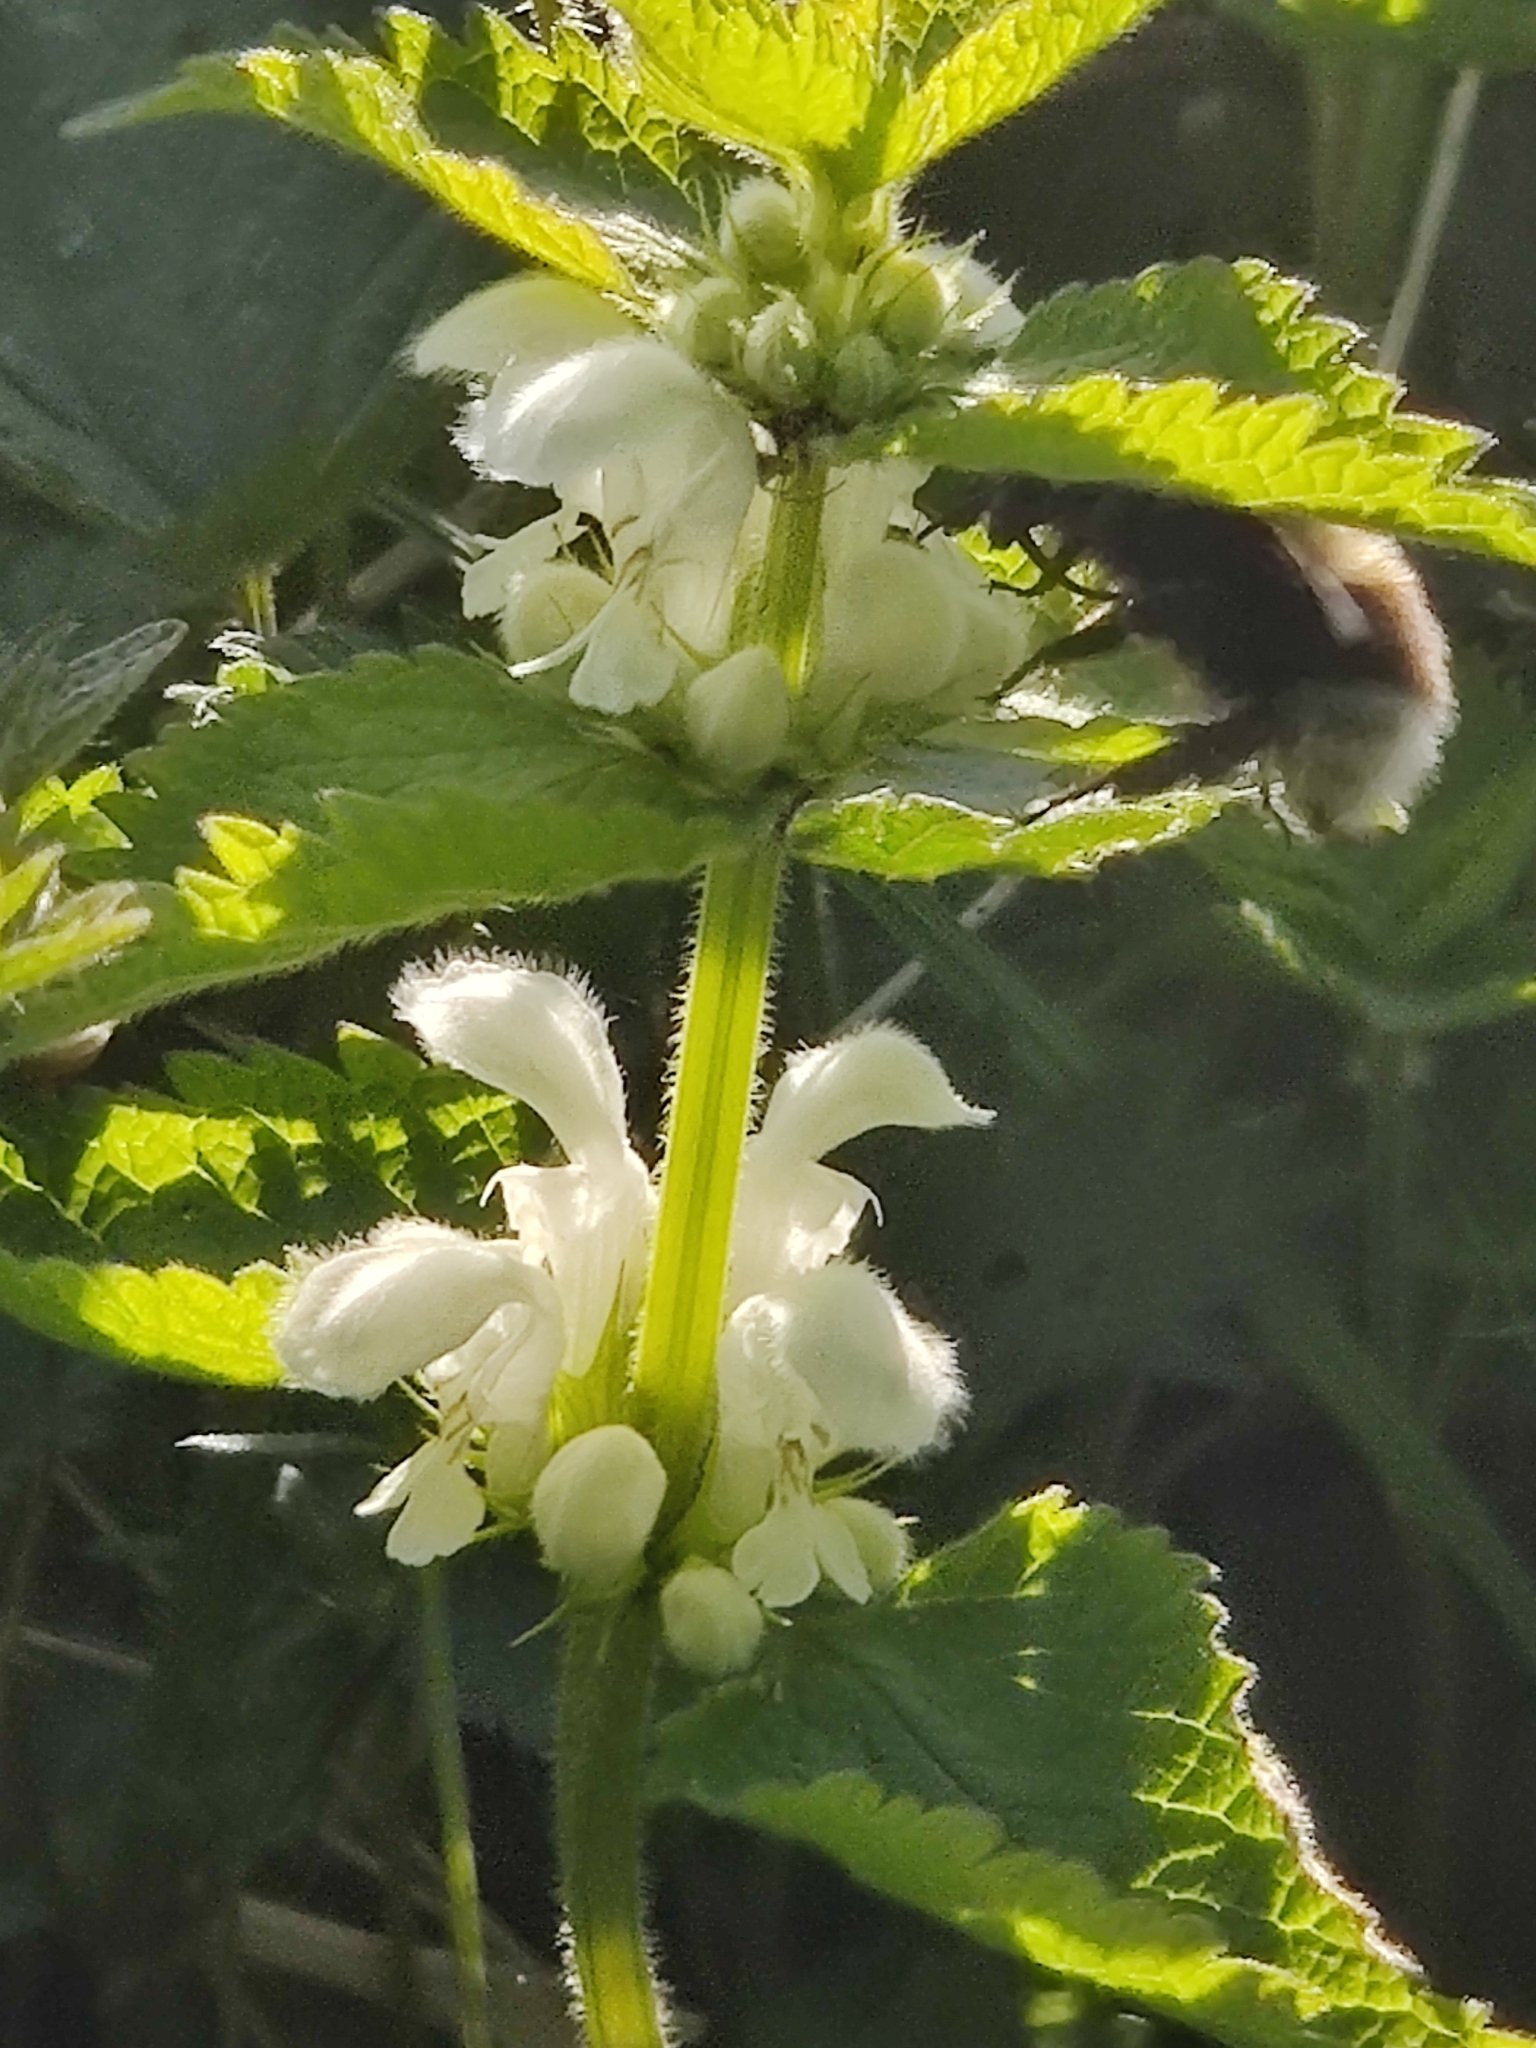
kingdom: Animalia
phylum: Arthropoda
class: Insecta
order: Hymenoptera
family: Apidae
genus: Bombus
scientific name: Bombus hortorum
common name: Garden bumblebee
